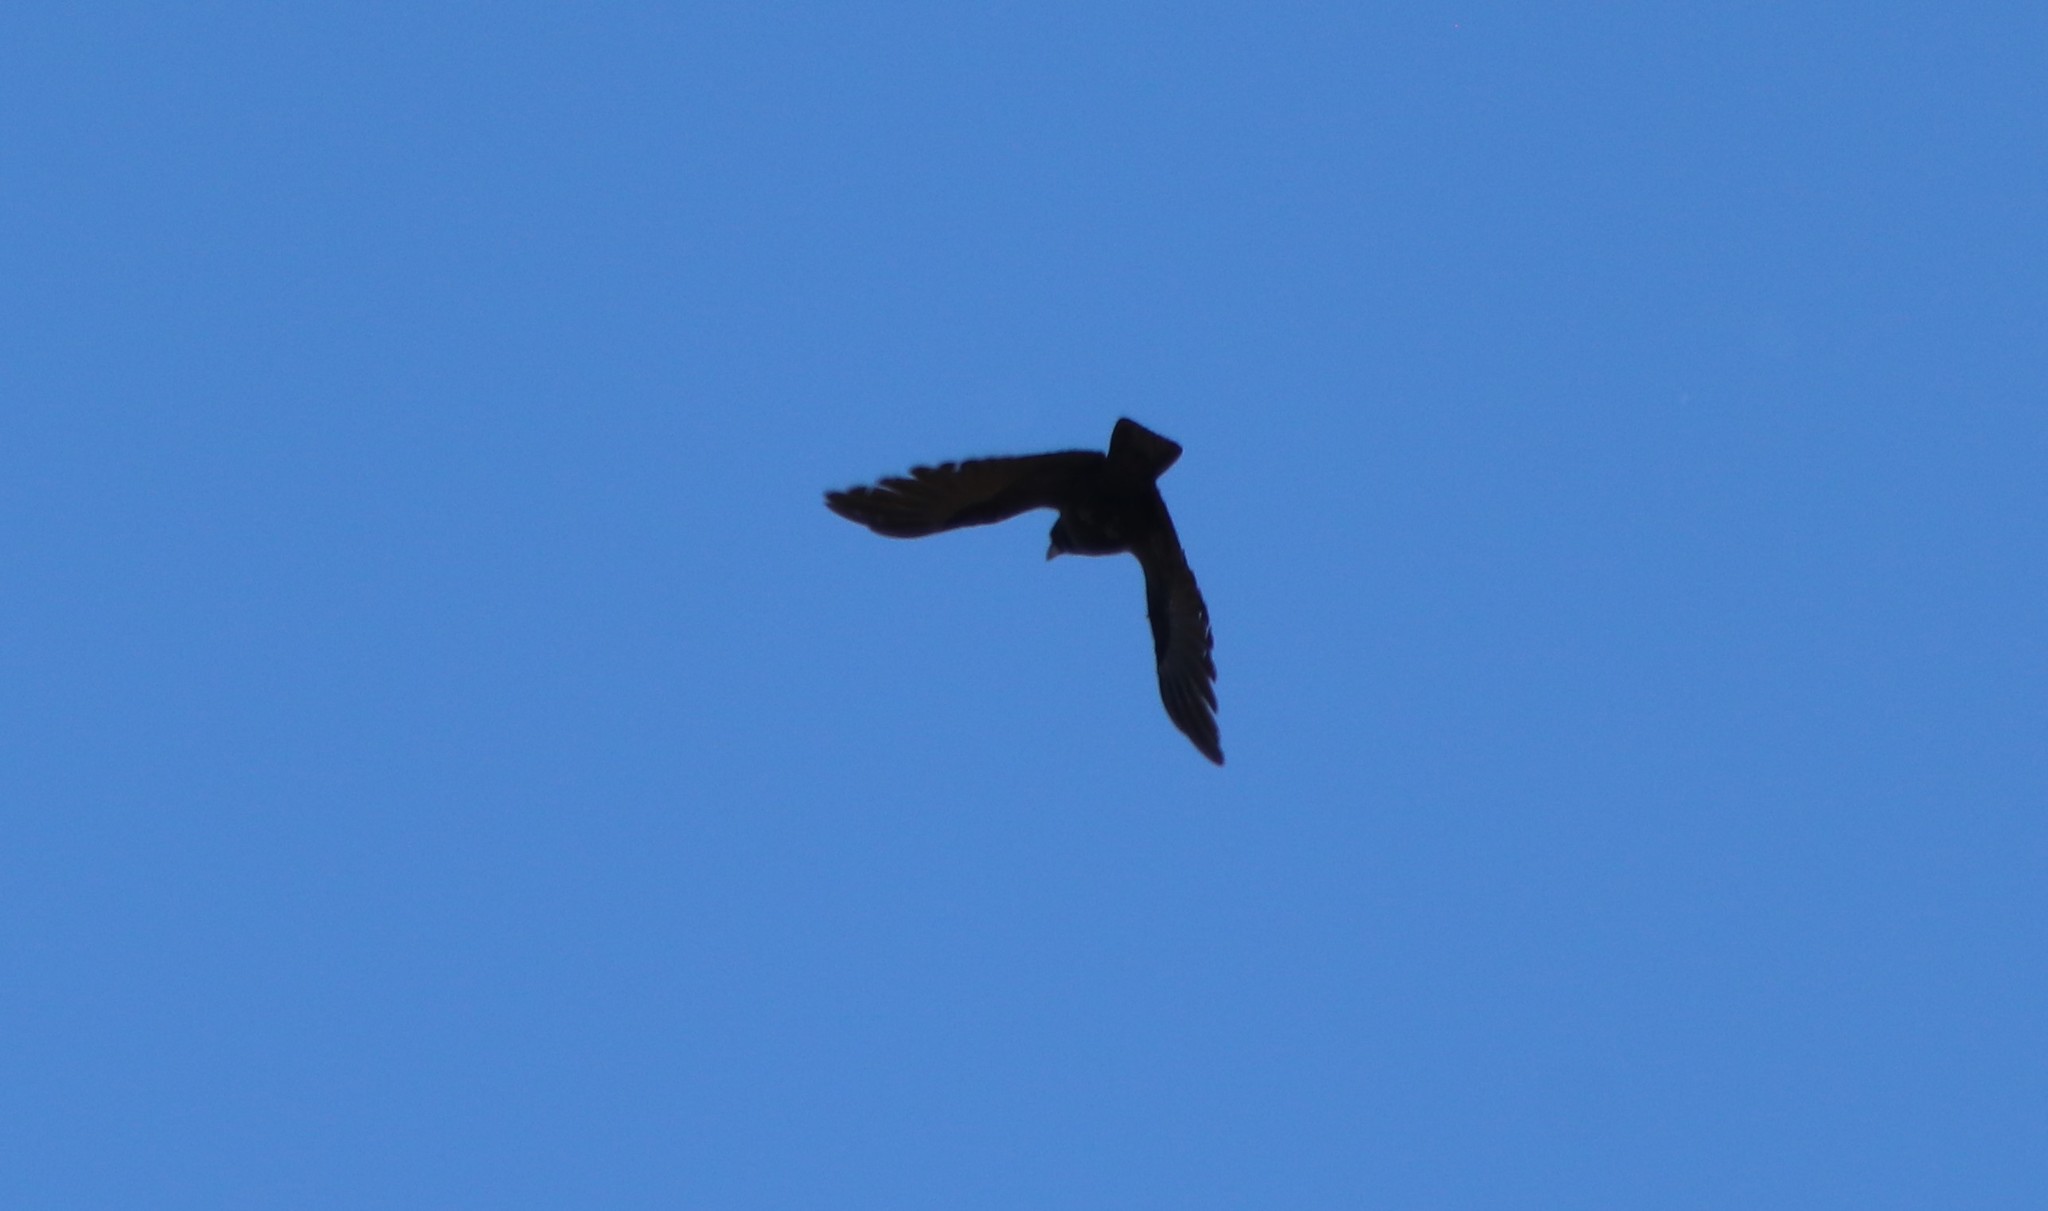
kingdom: Animalia
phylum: Chordata
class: Aves
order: Passeriformes
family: Corvidae
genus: Corvus
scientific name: Corvus brachyrhynchos
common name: American crow
